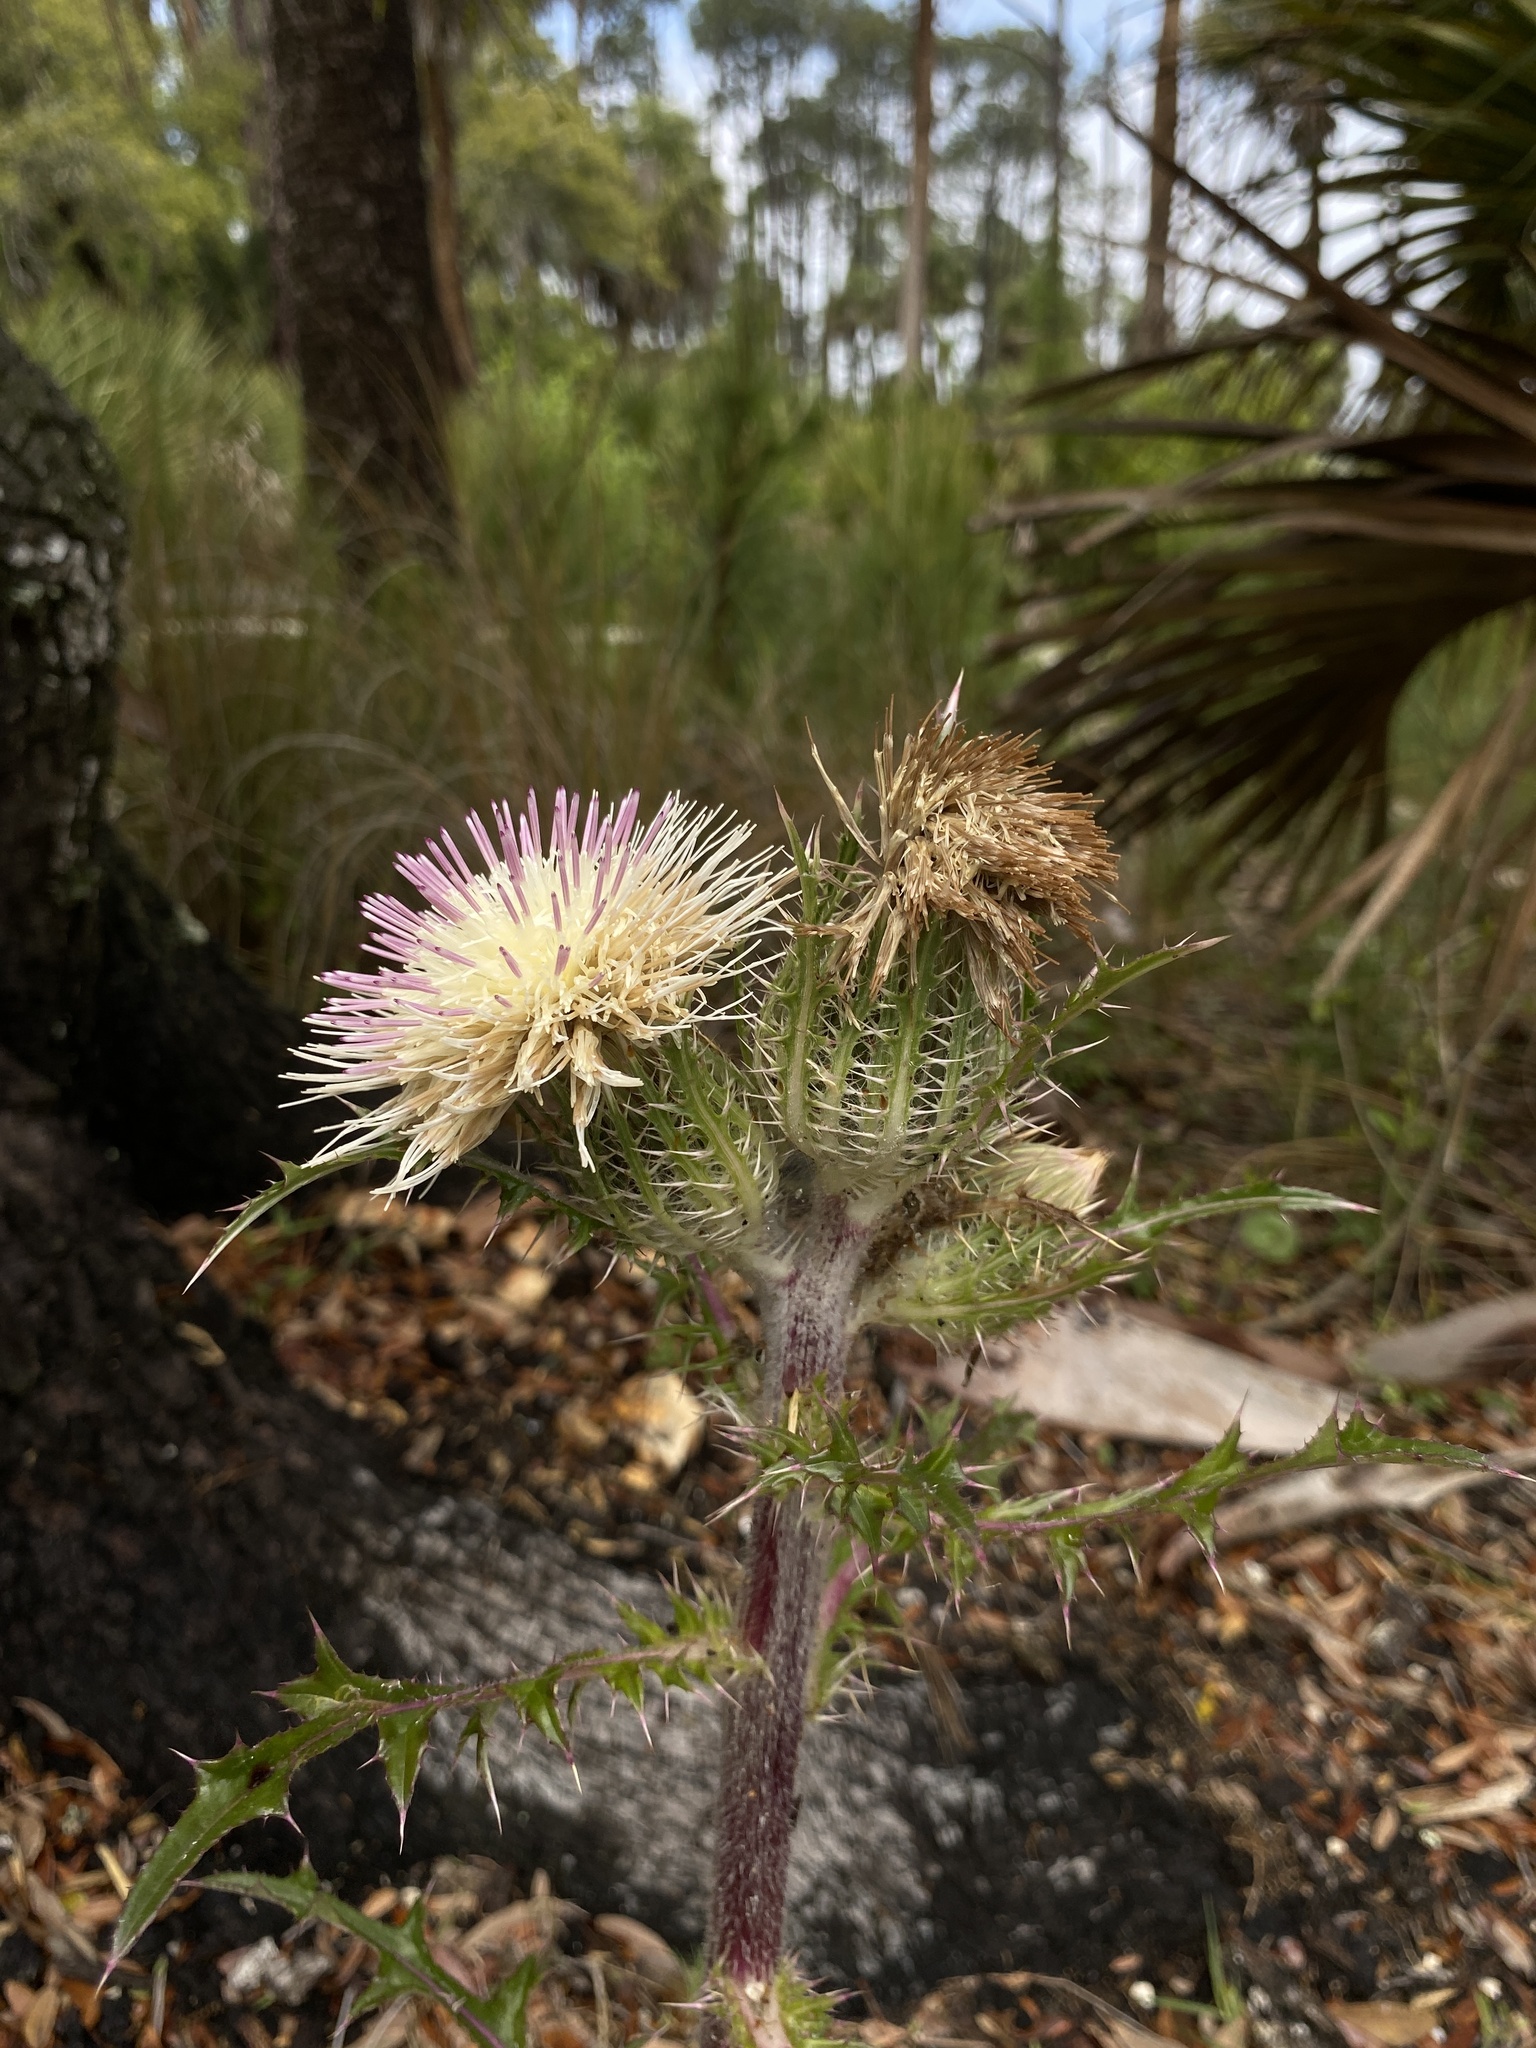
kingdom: Plantae
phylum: Tracheophyta
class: Magnoliopsida
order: Asterales
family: Asteraceae
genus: Cirsium
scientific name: Cirsium horridulum
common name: Bristly thistle
